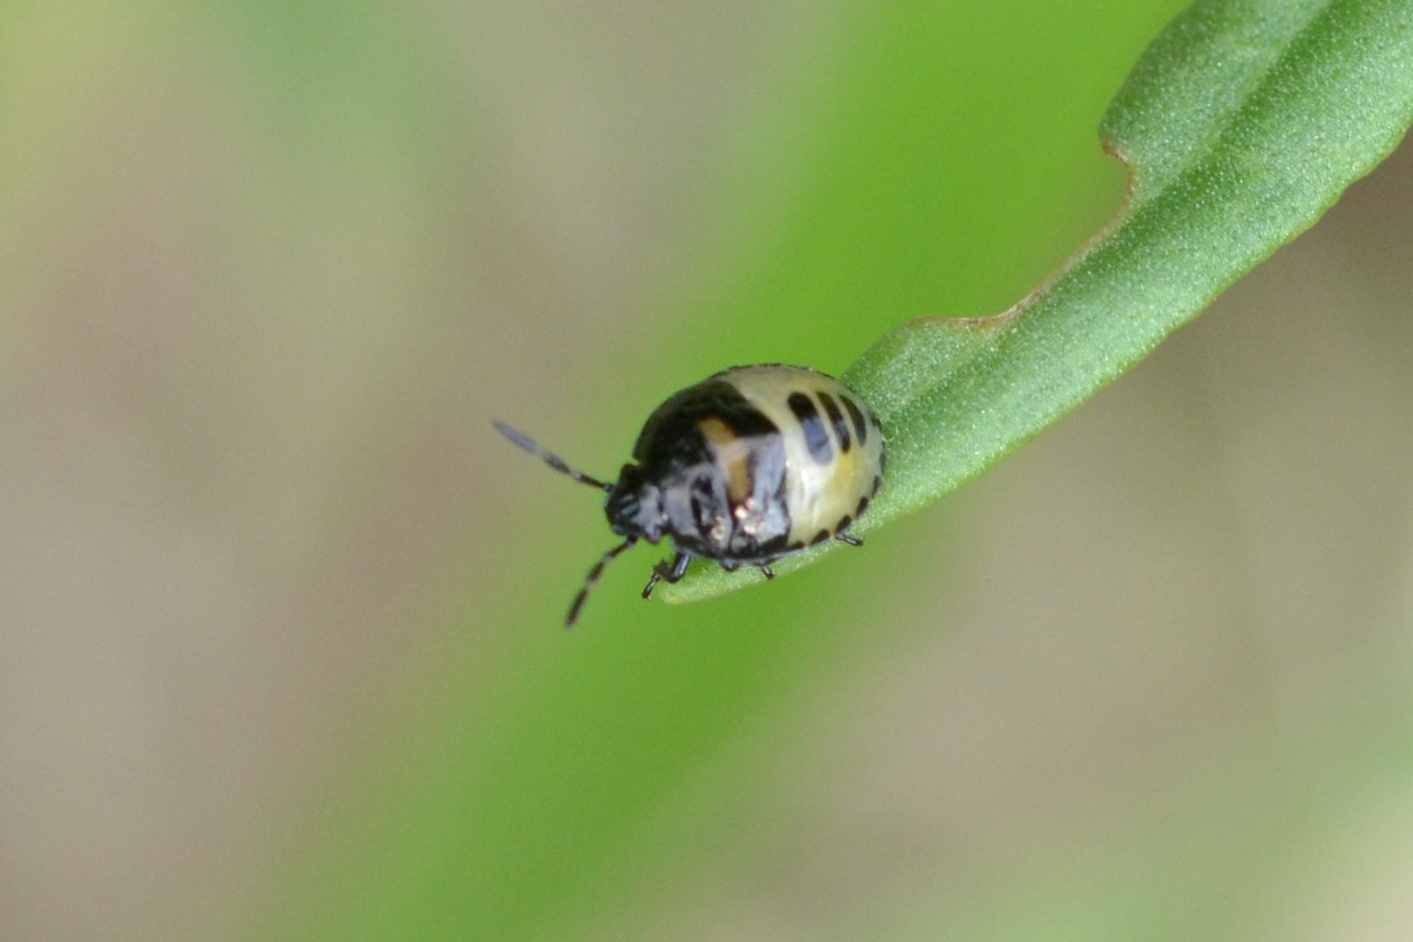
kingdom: Animalia
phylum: Arthropoda
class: Insecta
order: Hemiptera
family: Cydnidae
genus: Tritomegas
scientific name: Tritomegas bicolor
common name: Pied shieldbug
